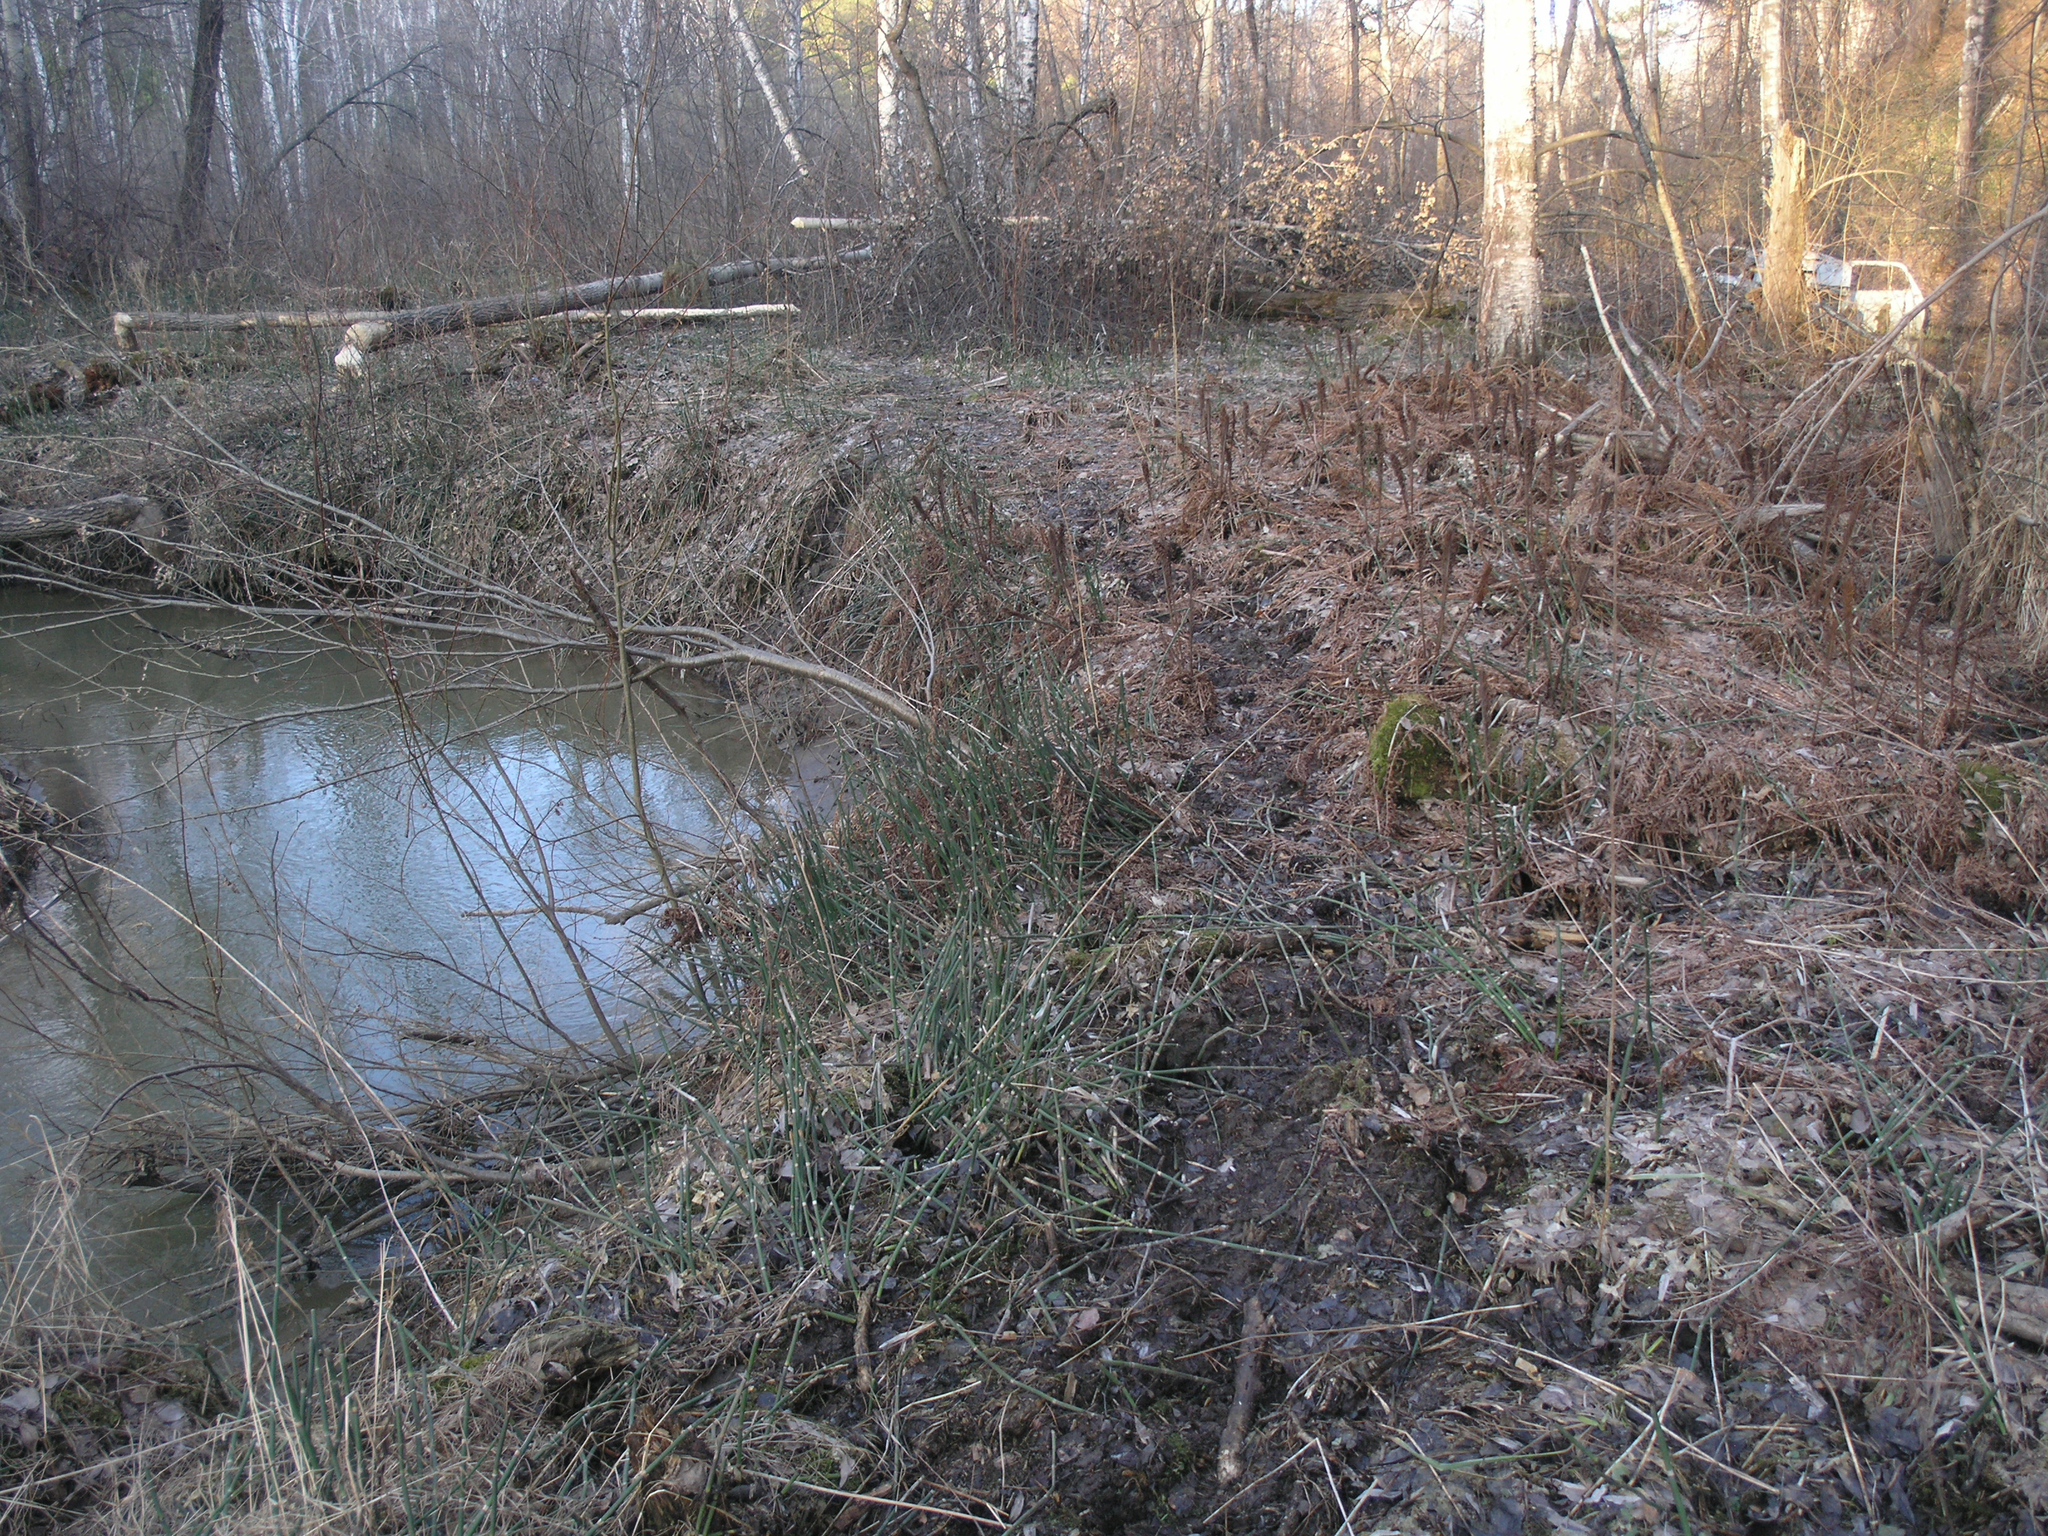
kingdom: Animalia
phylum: Chordata
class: Mammalia
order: Rodentia
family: Castoridae
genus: Castor
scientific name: Castor fiber
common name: Eurasian beaver
